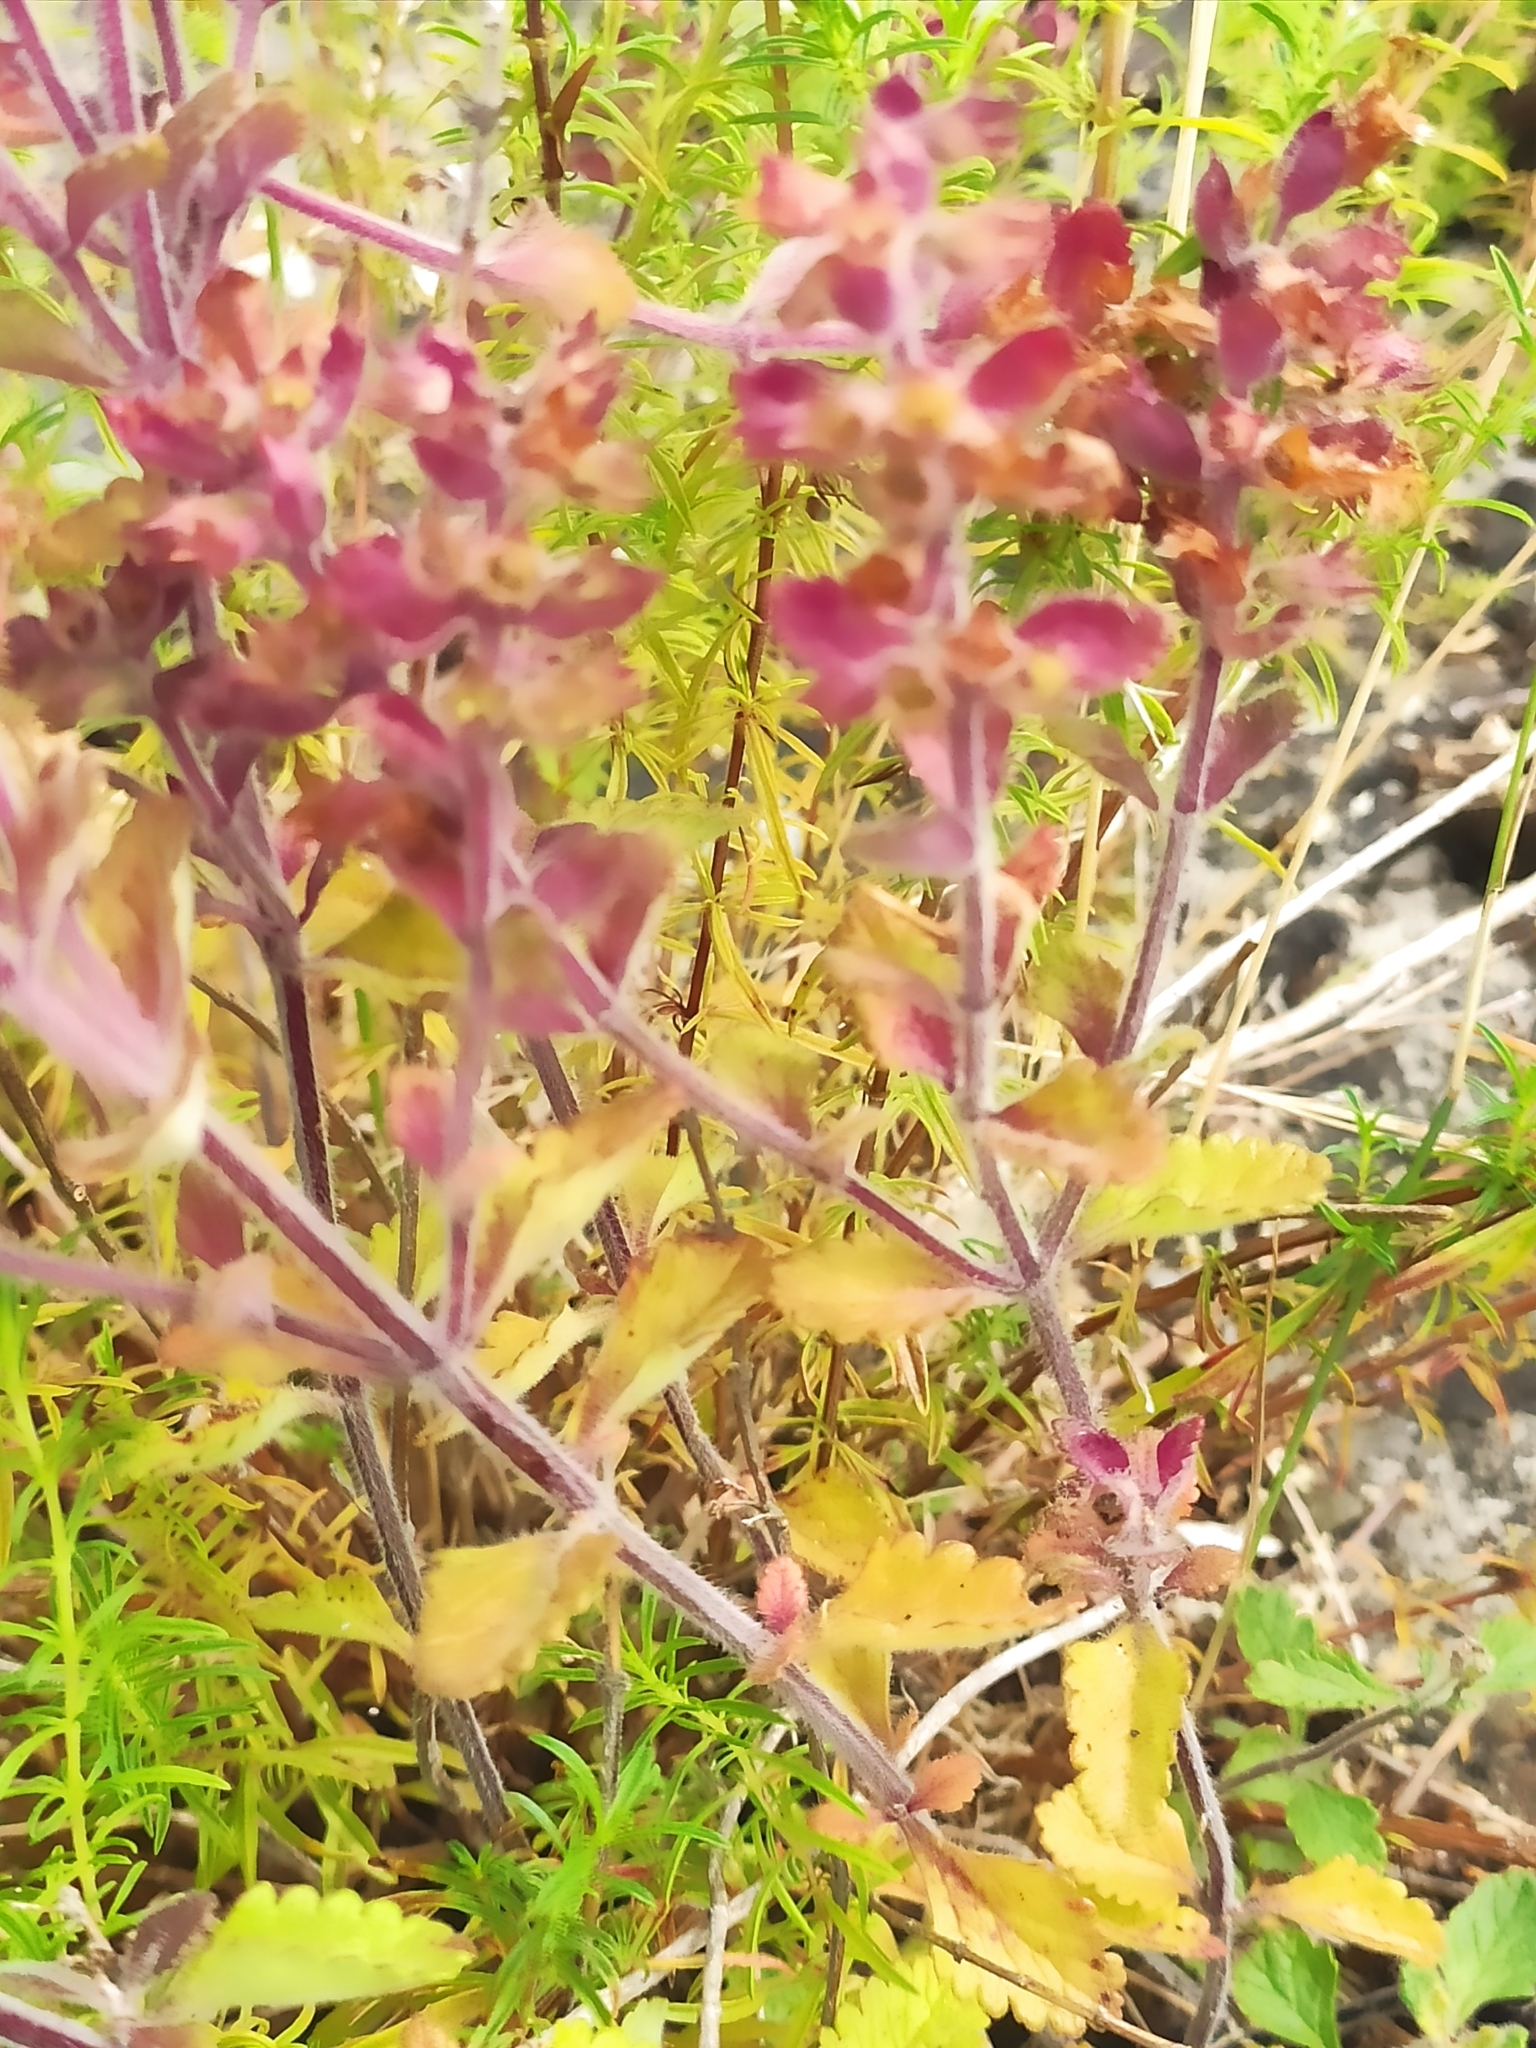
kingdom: Plantae
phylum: Tracheophyta
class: Magnoliopsida
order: Lamiales
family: Lamiaceae
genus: Teucrium
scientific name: Teucrium chamaedrys
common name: Wall germander
